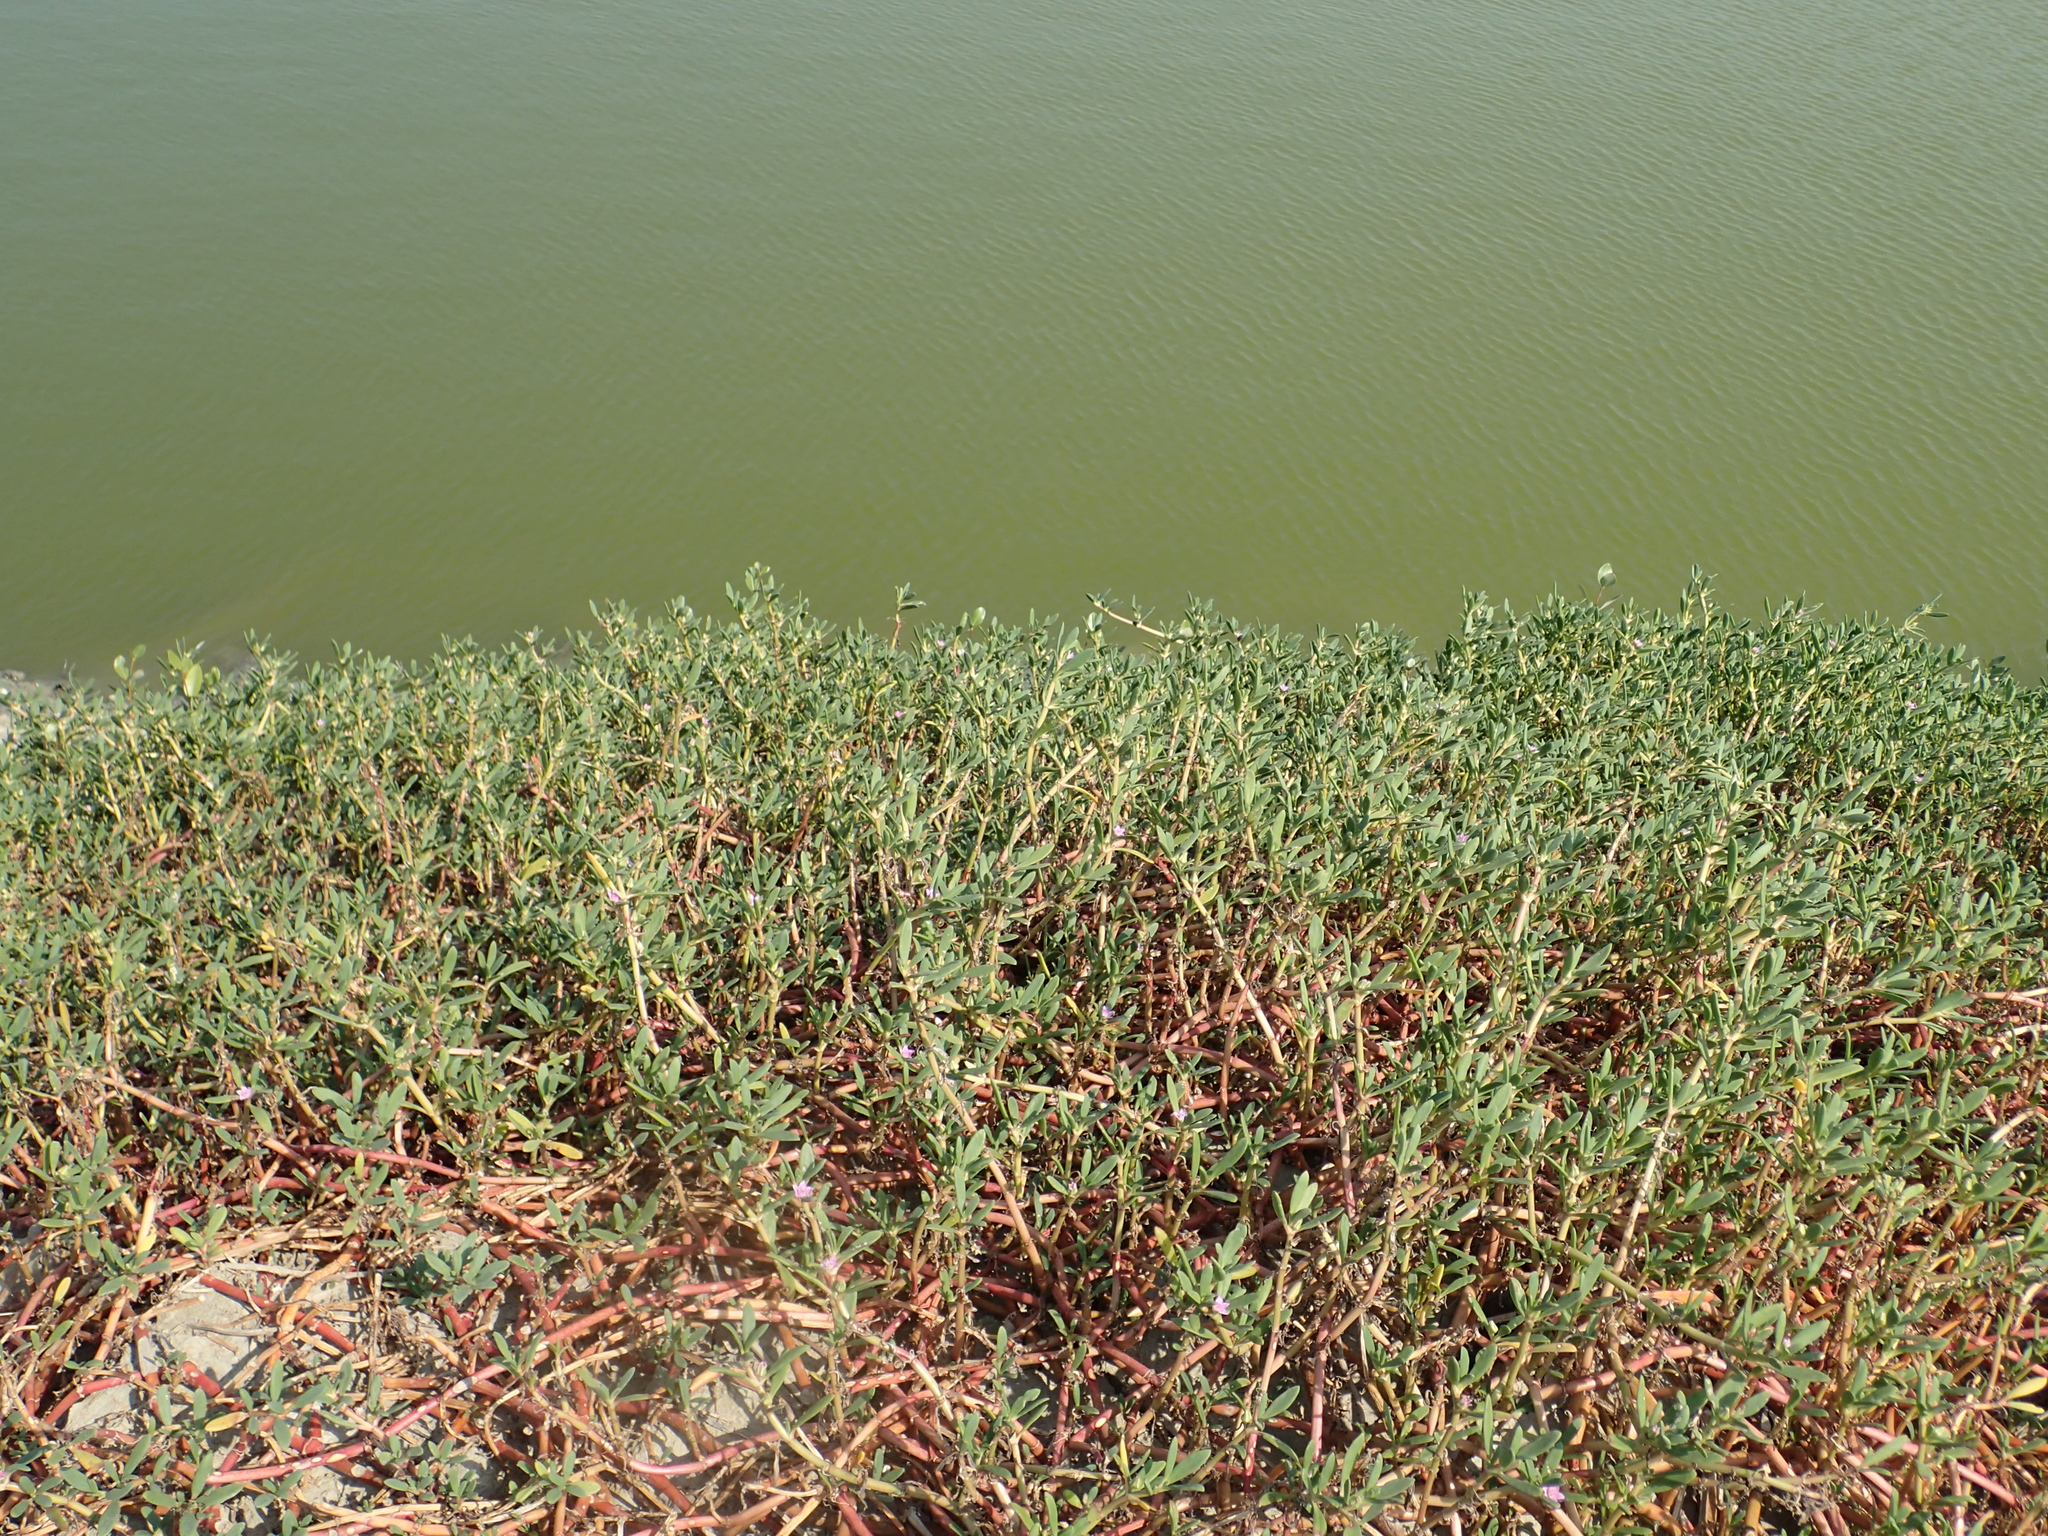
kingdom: Plantae
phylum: Tracheophyta
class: Magnoliopsida
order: Caryophyllales
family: Aizoaceae
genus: Sesuvium
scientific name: Sesuvium portulacastrum
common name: Sea-purslane
